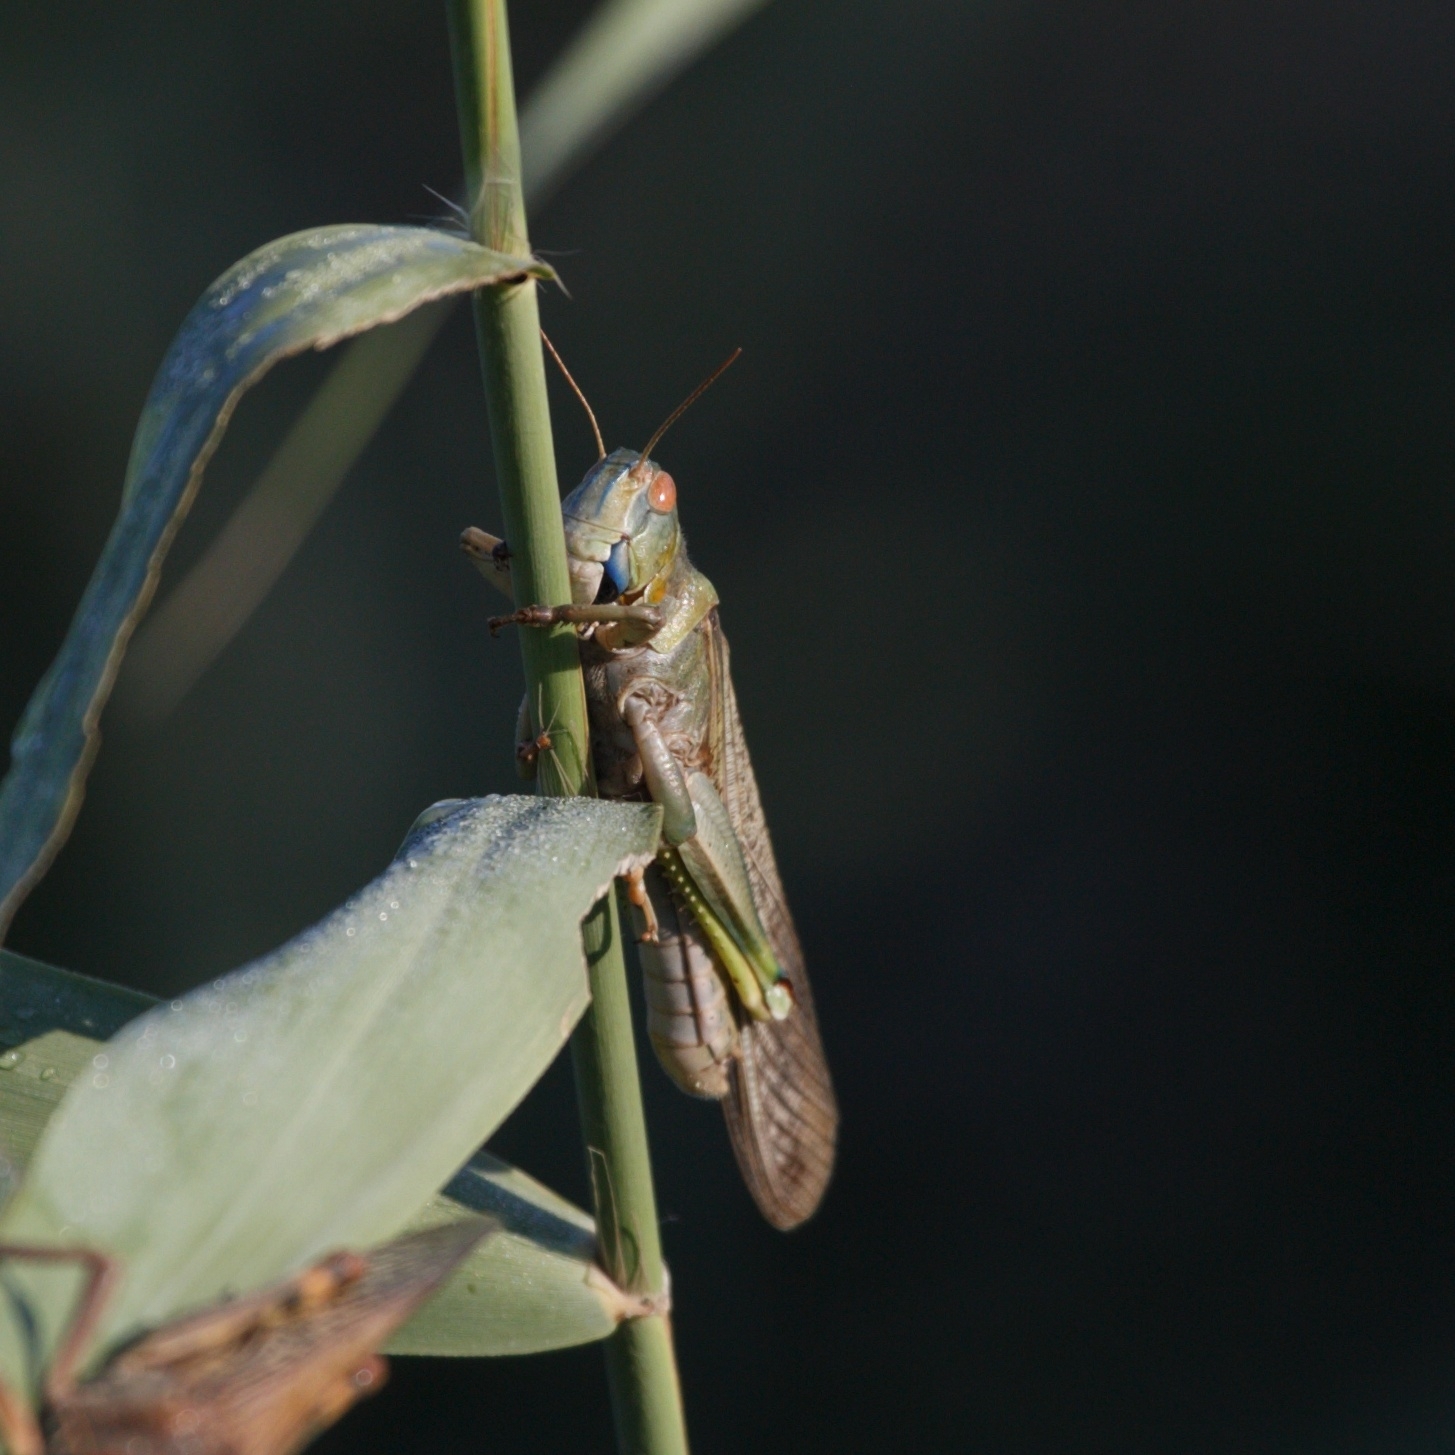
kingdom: Animalia
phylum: Arthropoda
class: Insecta
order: Orthoptera
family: Acrididae
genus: Locusta
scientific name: Locusta migratoria
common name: Migratory locust
